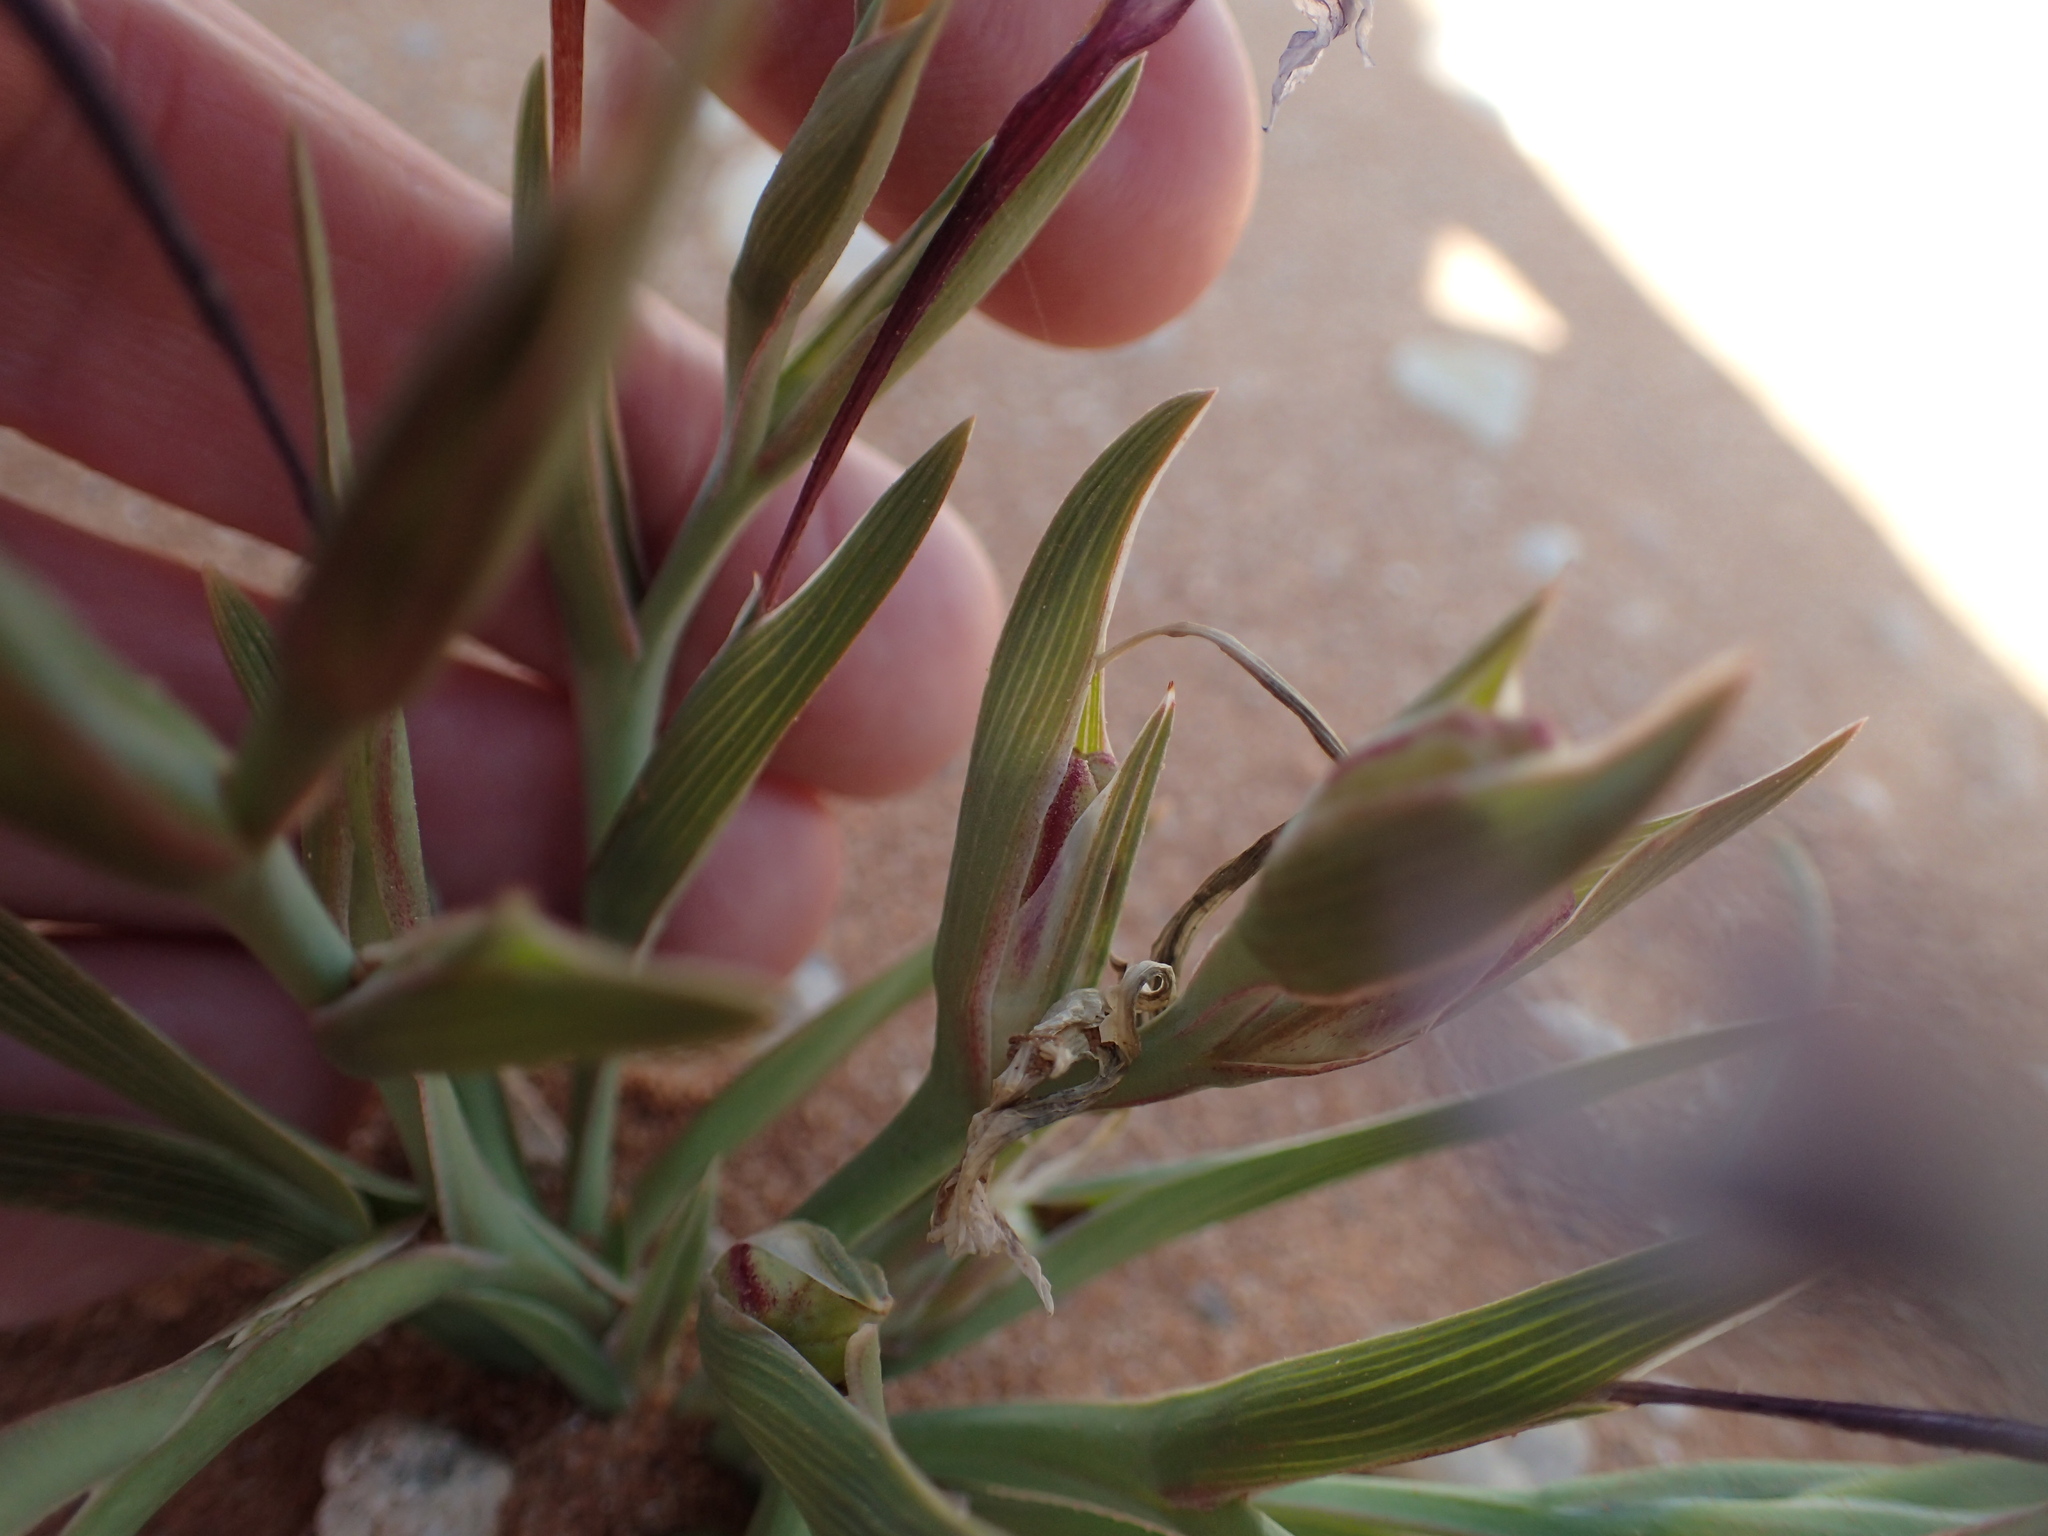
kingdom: Plantae
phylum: Tracheophyta
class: Liliopsida
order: Asparagales
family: Iridaceae
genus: Lapeirousia
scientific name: Lapeirousia macrospatha
